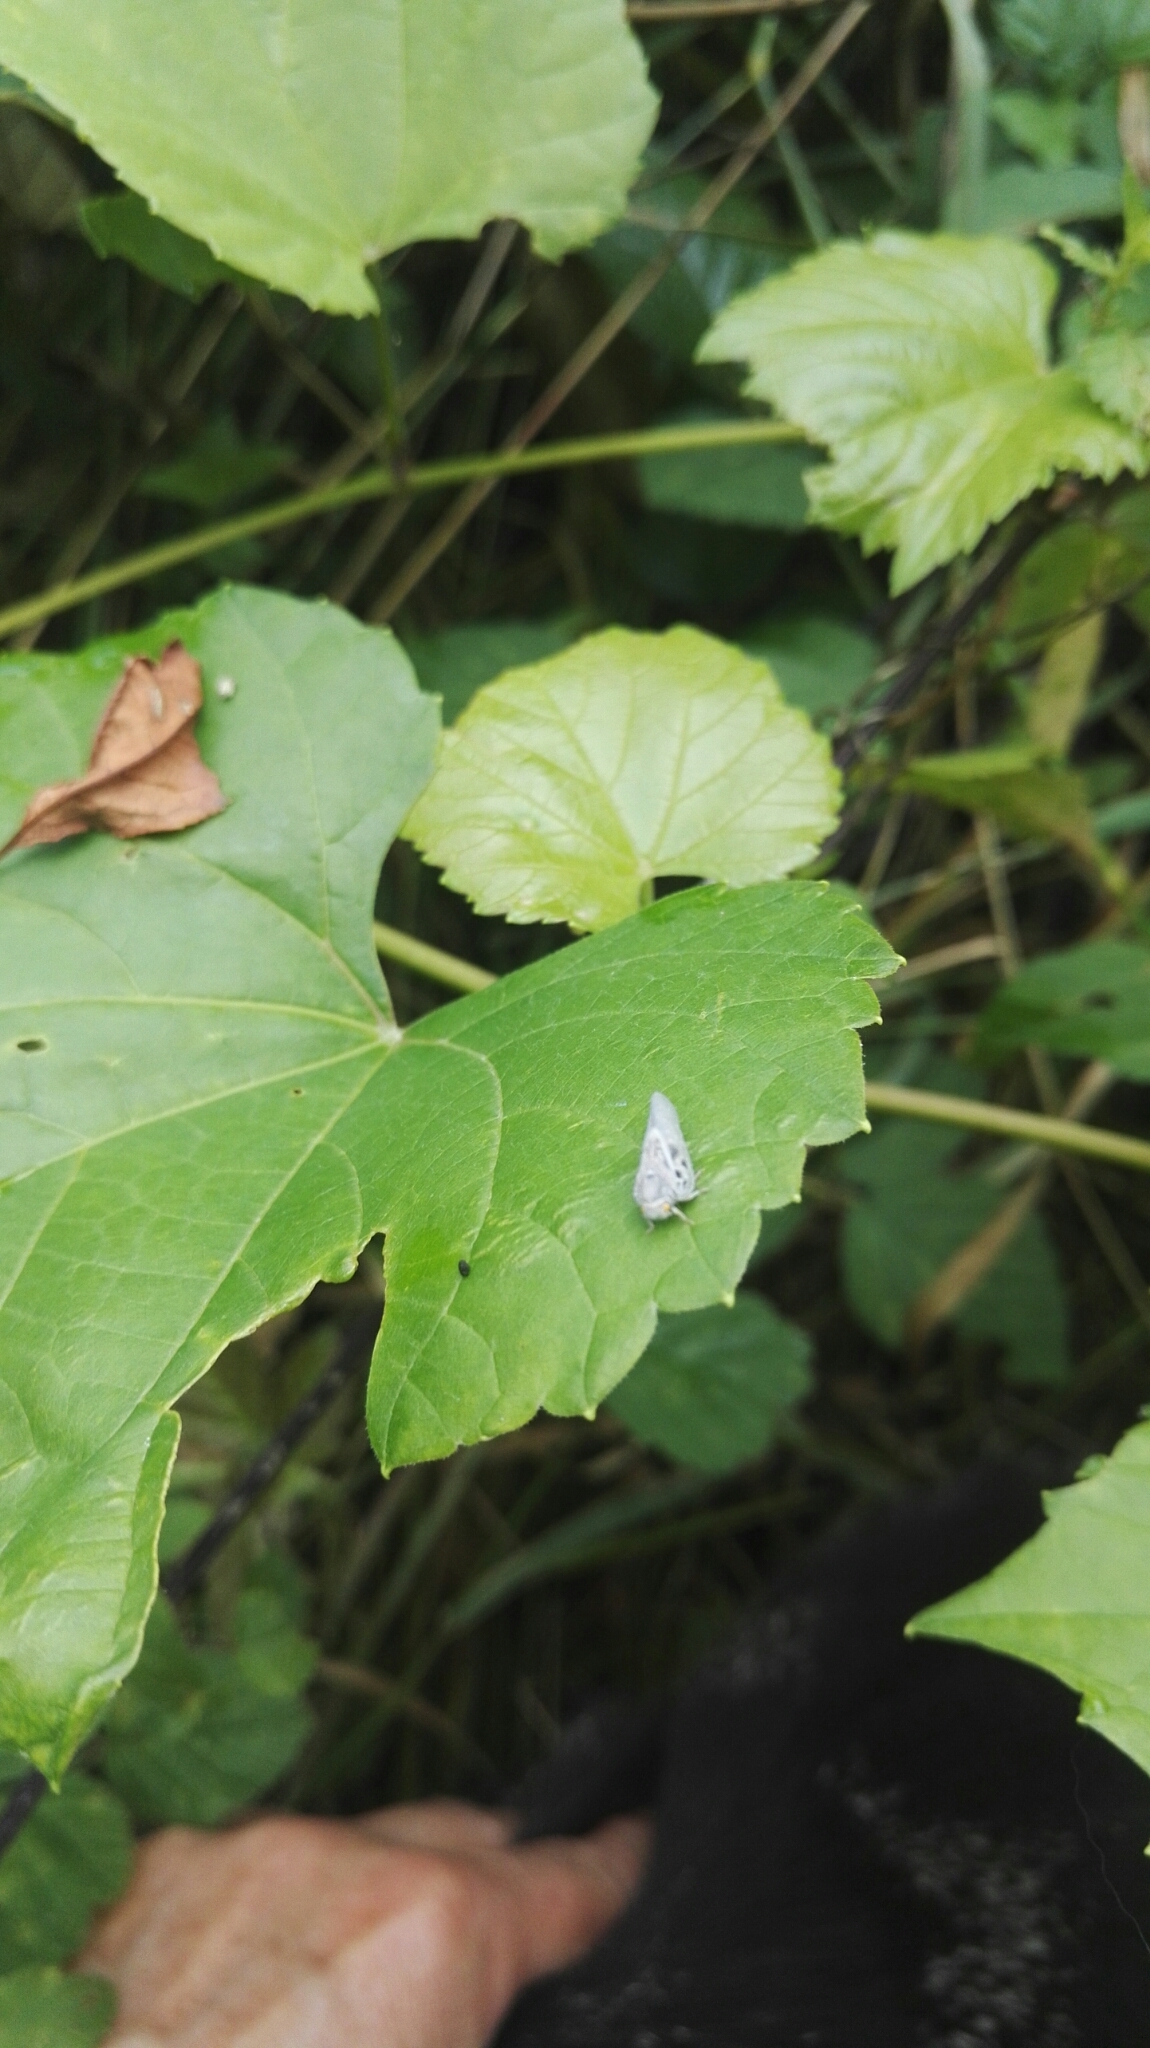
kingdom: Animalia
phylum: Arthropoda
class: Insecta
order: Hemiptera
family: Flatidae
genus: Metcalfa
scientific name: Metcalfa pruinosa
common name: Citrus flatid planthopper
